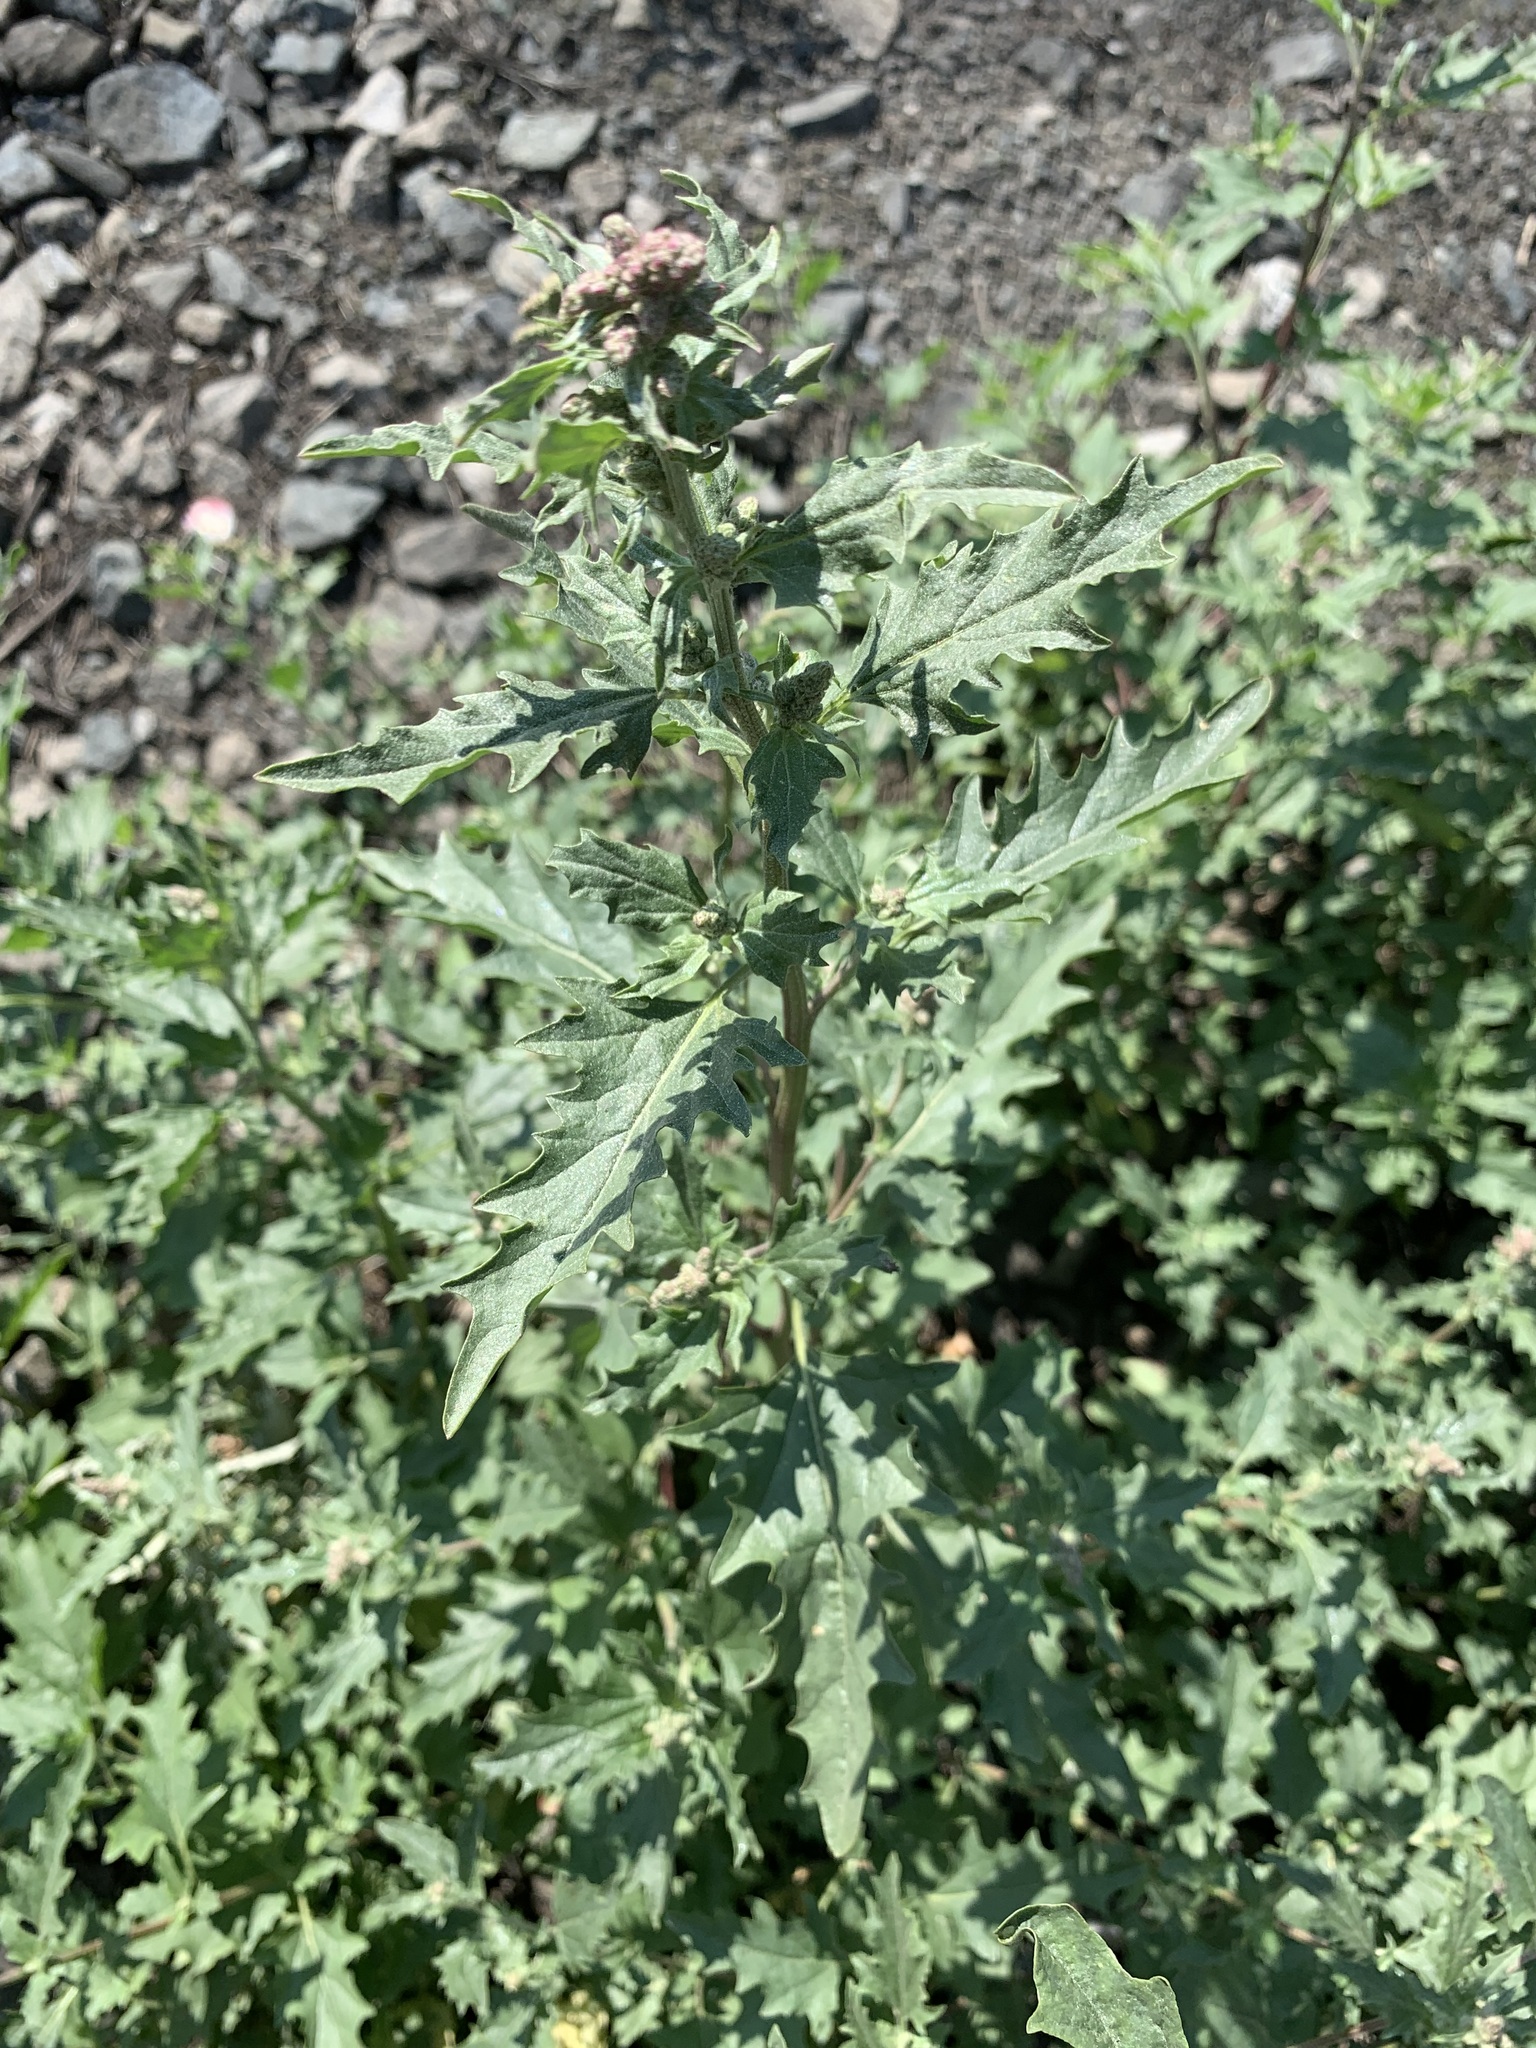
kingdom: Plantae
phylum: Tracheophyta
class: Magnoliopsida
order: Caryophyllales
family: Amaranthaceae
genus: Atriplex
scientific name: Atriplex tatarica
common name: Tatarian orache
